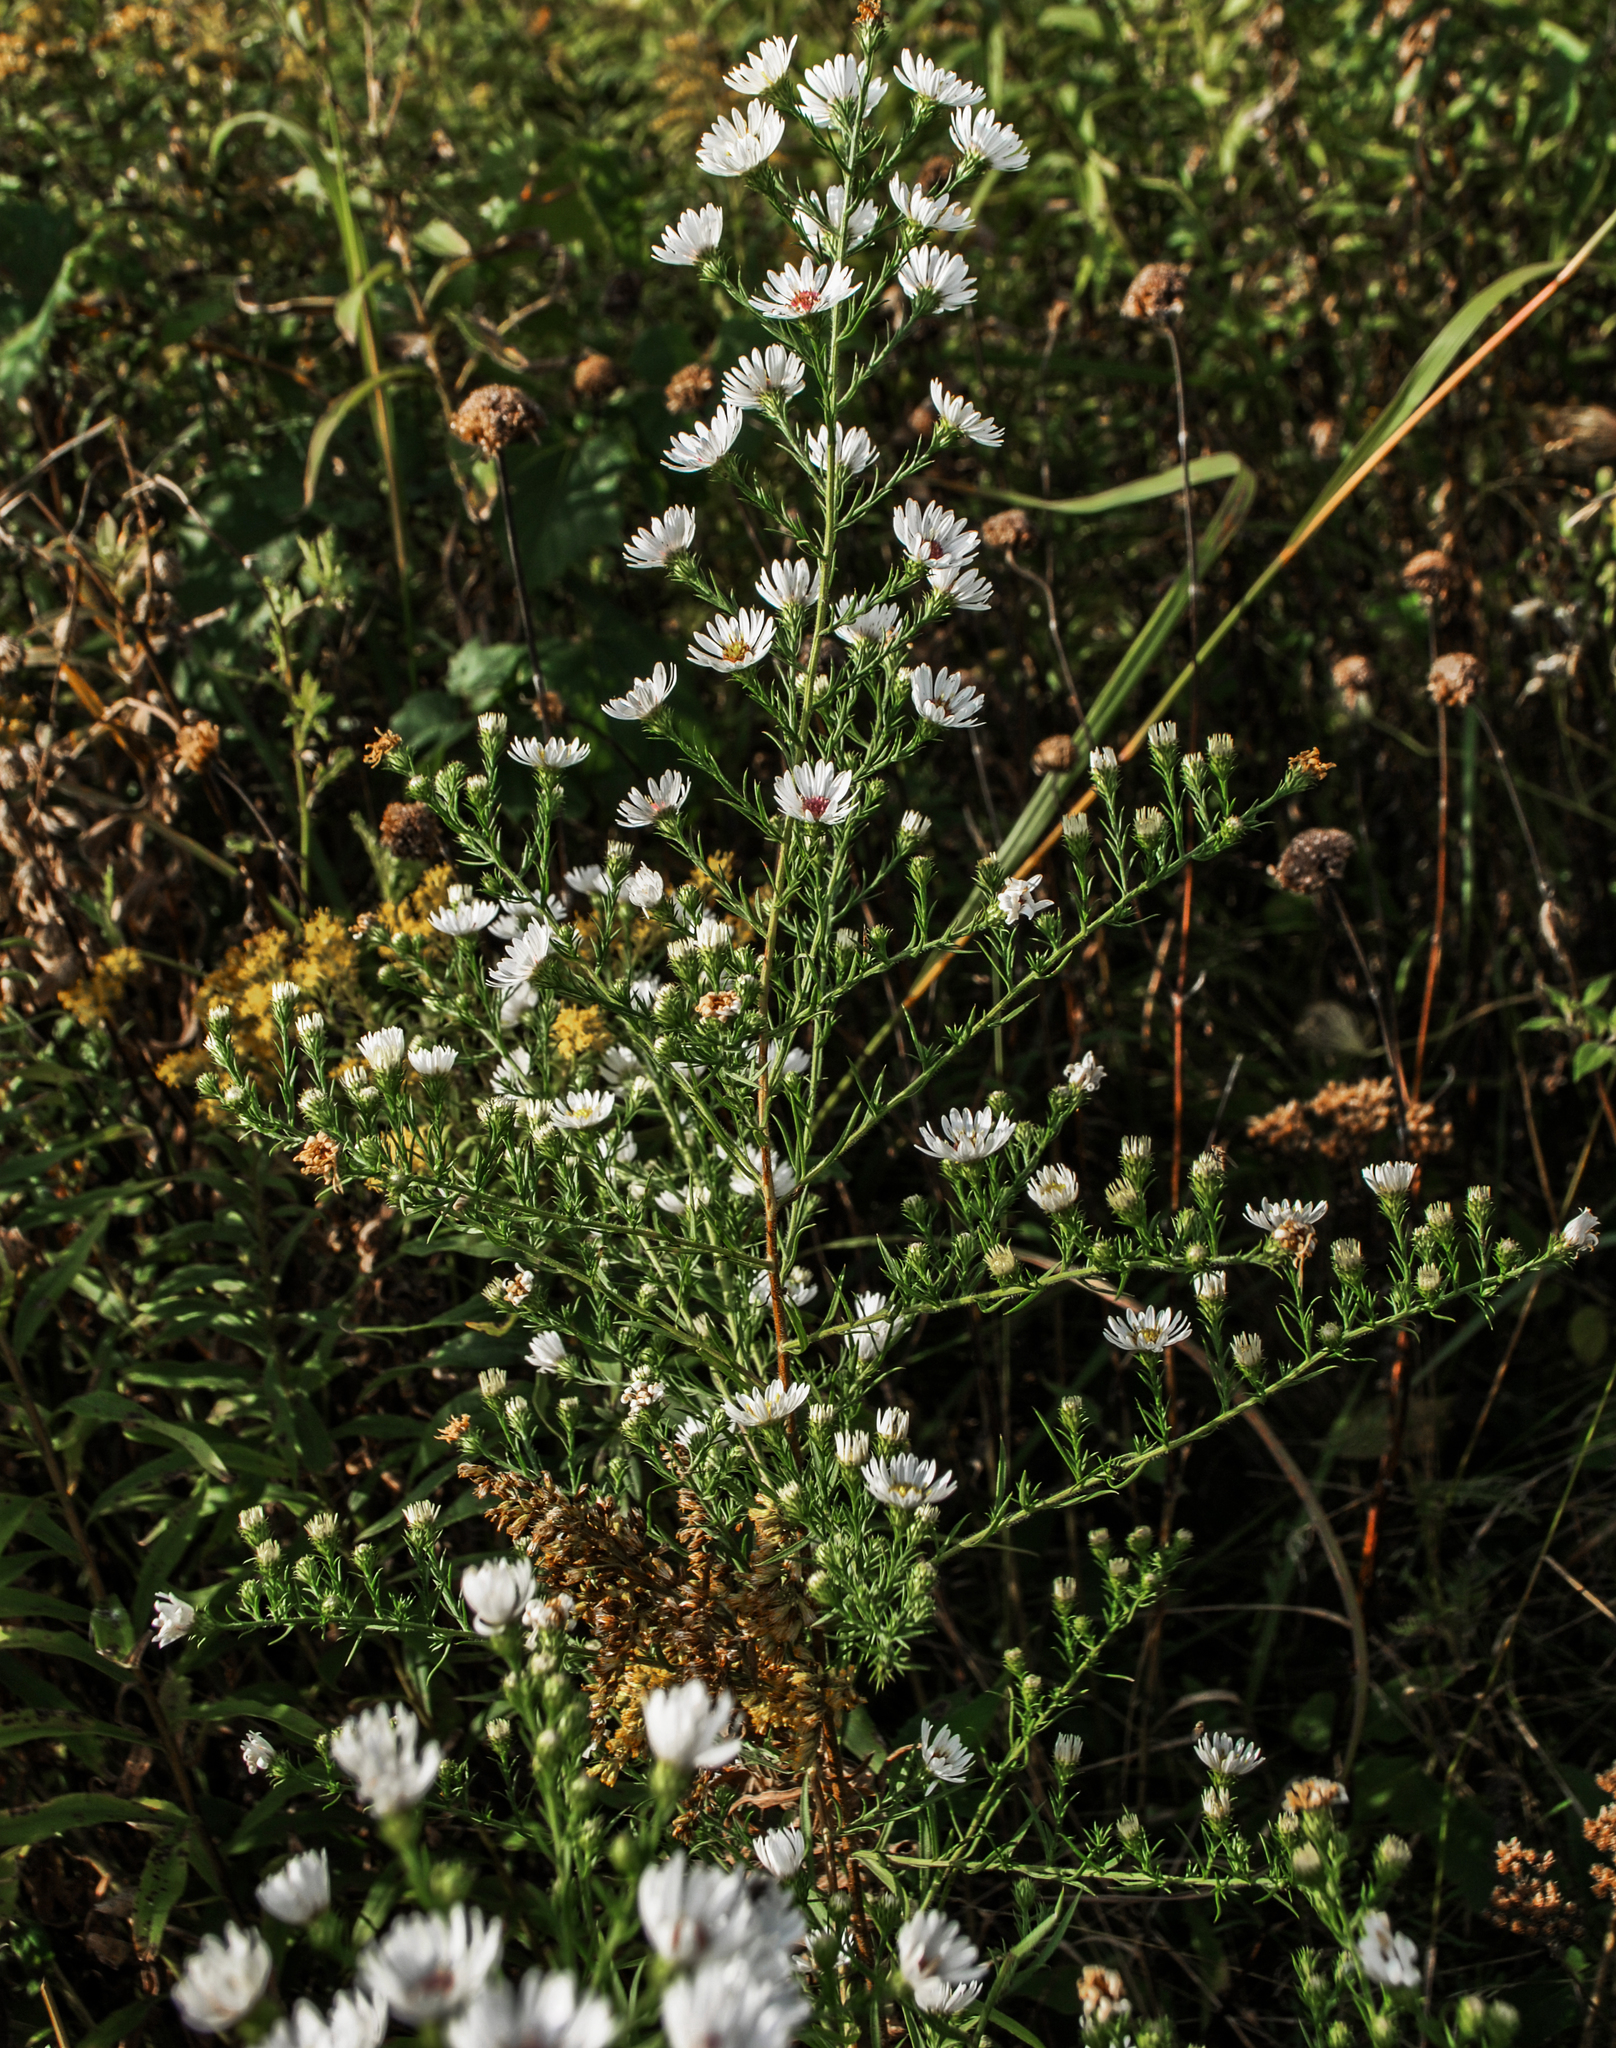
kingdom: Plantae
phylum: Tracheophyta
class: Magnoliopsida
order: Asterales
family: Asteraceae
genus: Symphyotrichum
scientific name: Symphyotrichum pilosum
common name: Awl aster
